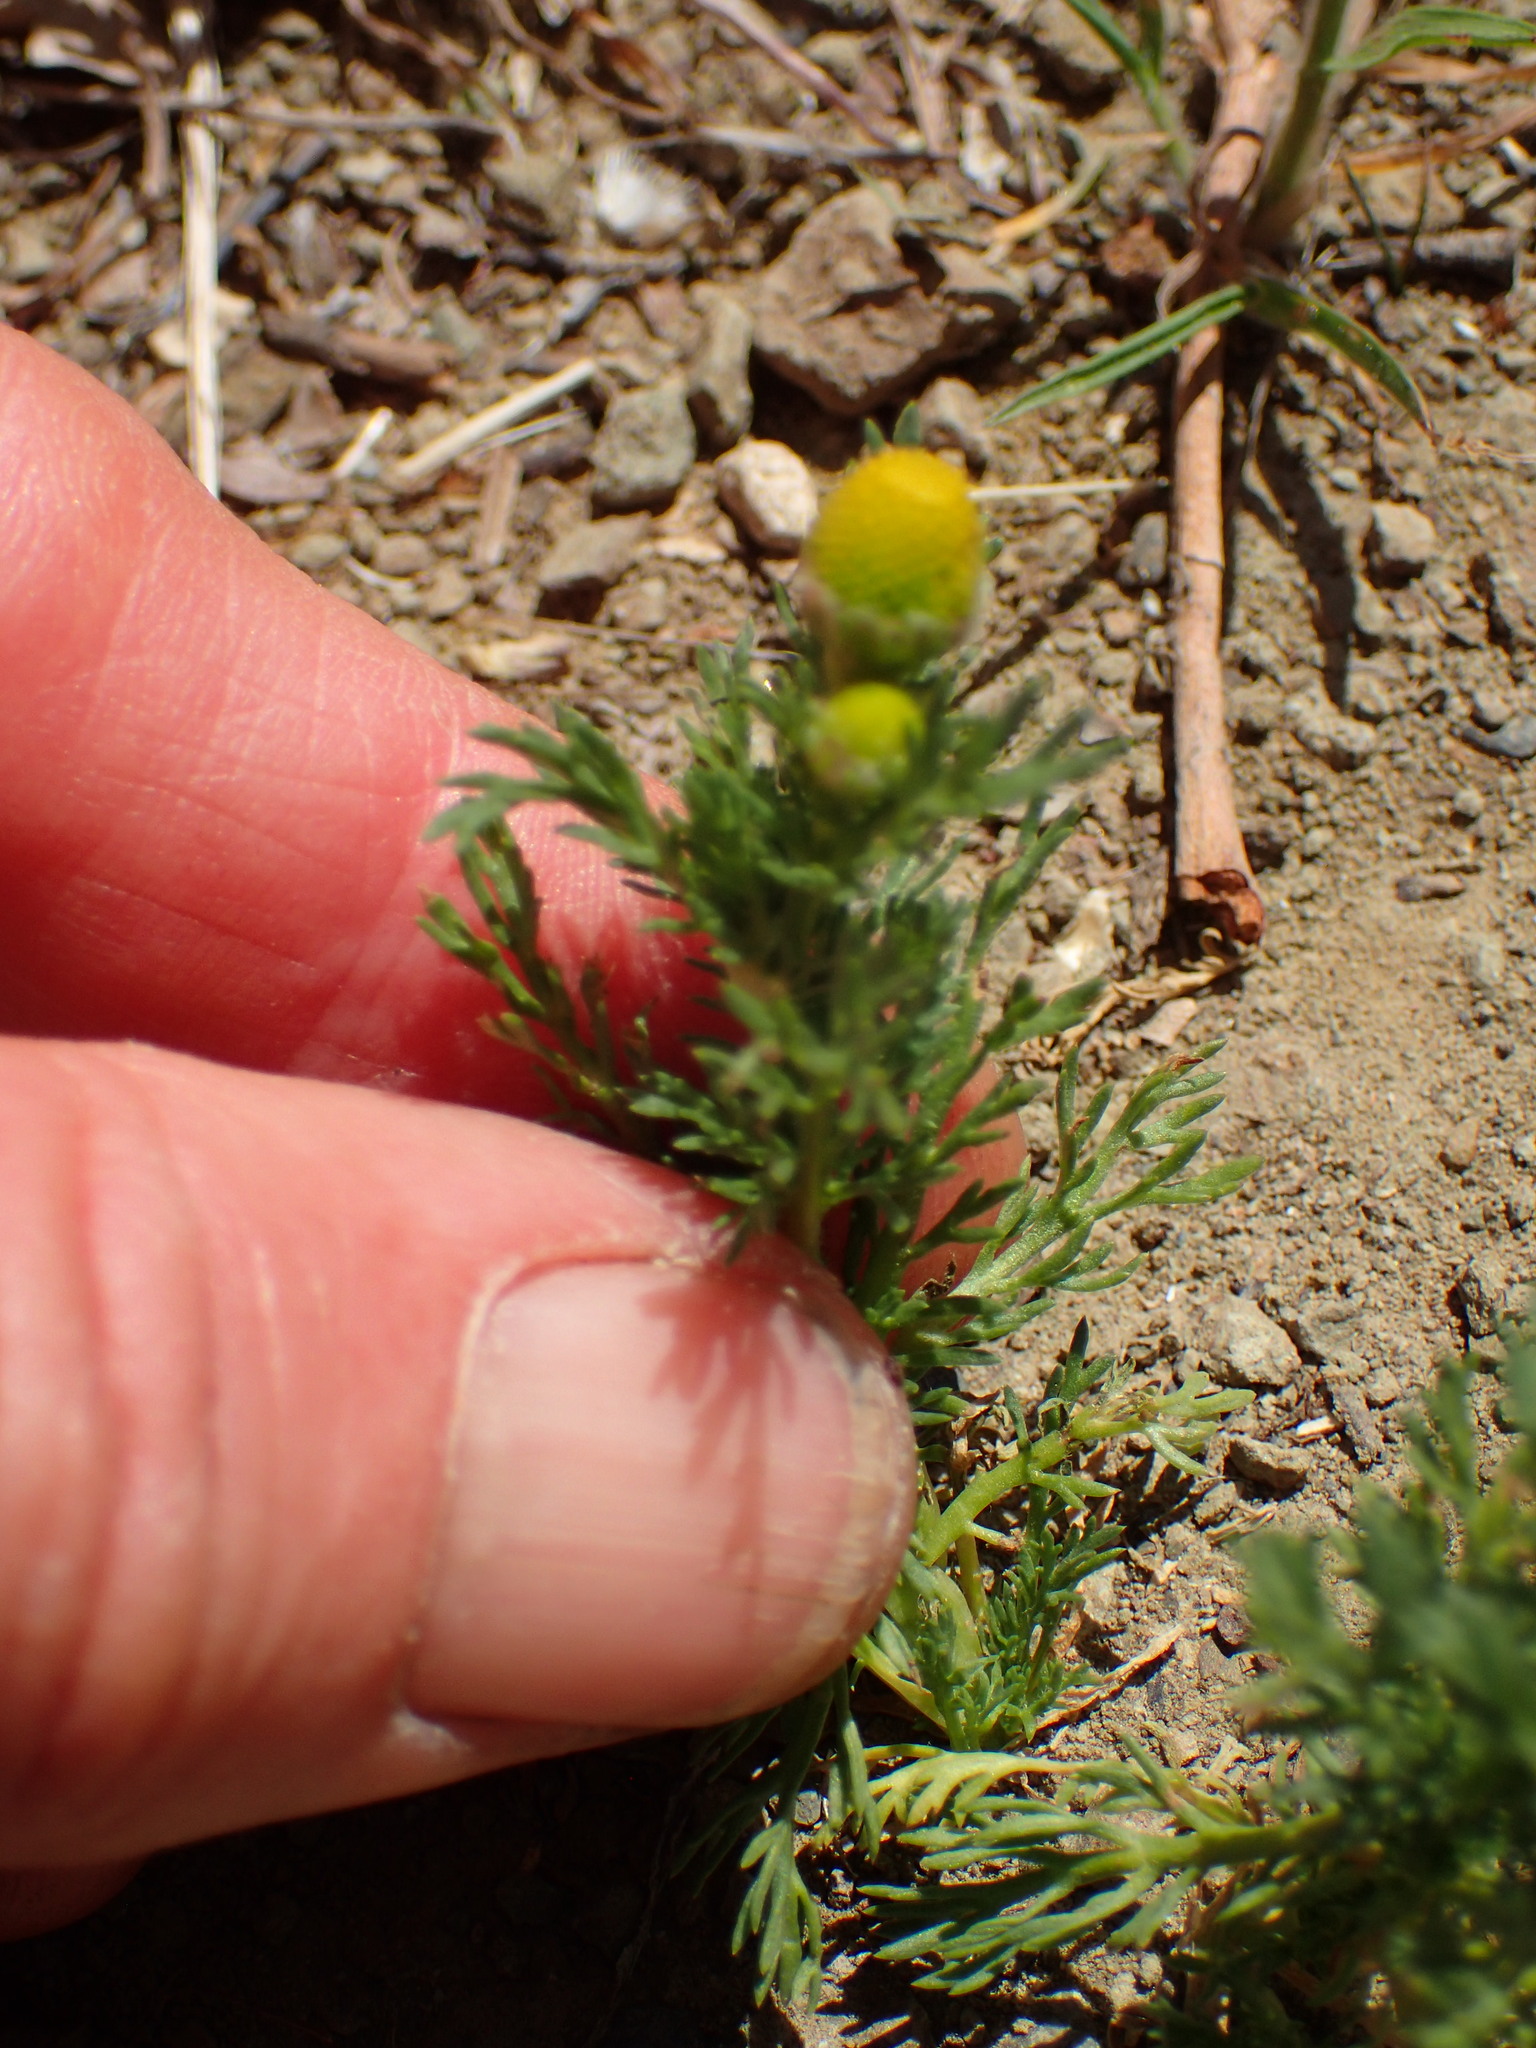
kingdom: Plantae
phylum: Tracheophyta
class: Magnoliopsida
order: Asterales
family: Asteraceae
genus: Matricaria
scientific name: Matricaria discoidea
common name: Disc mayweed
